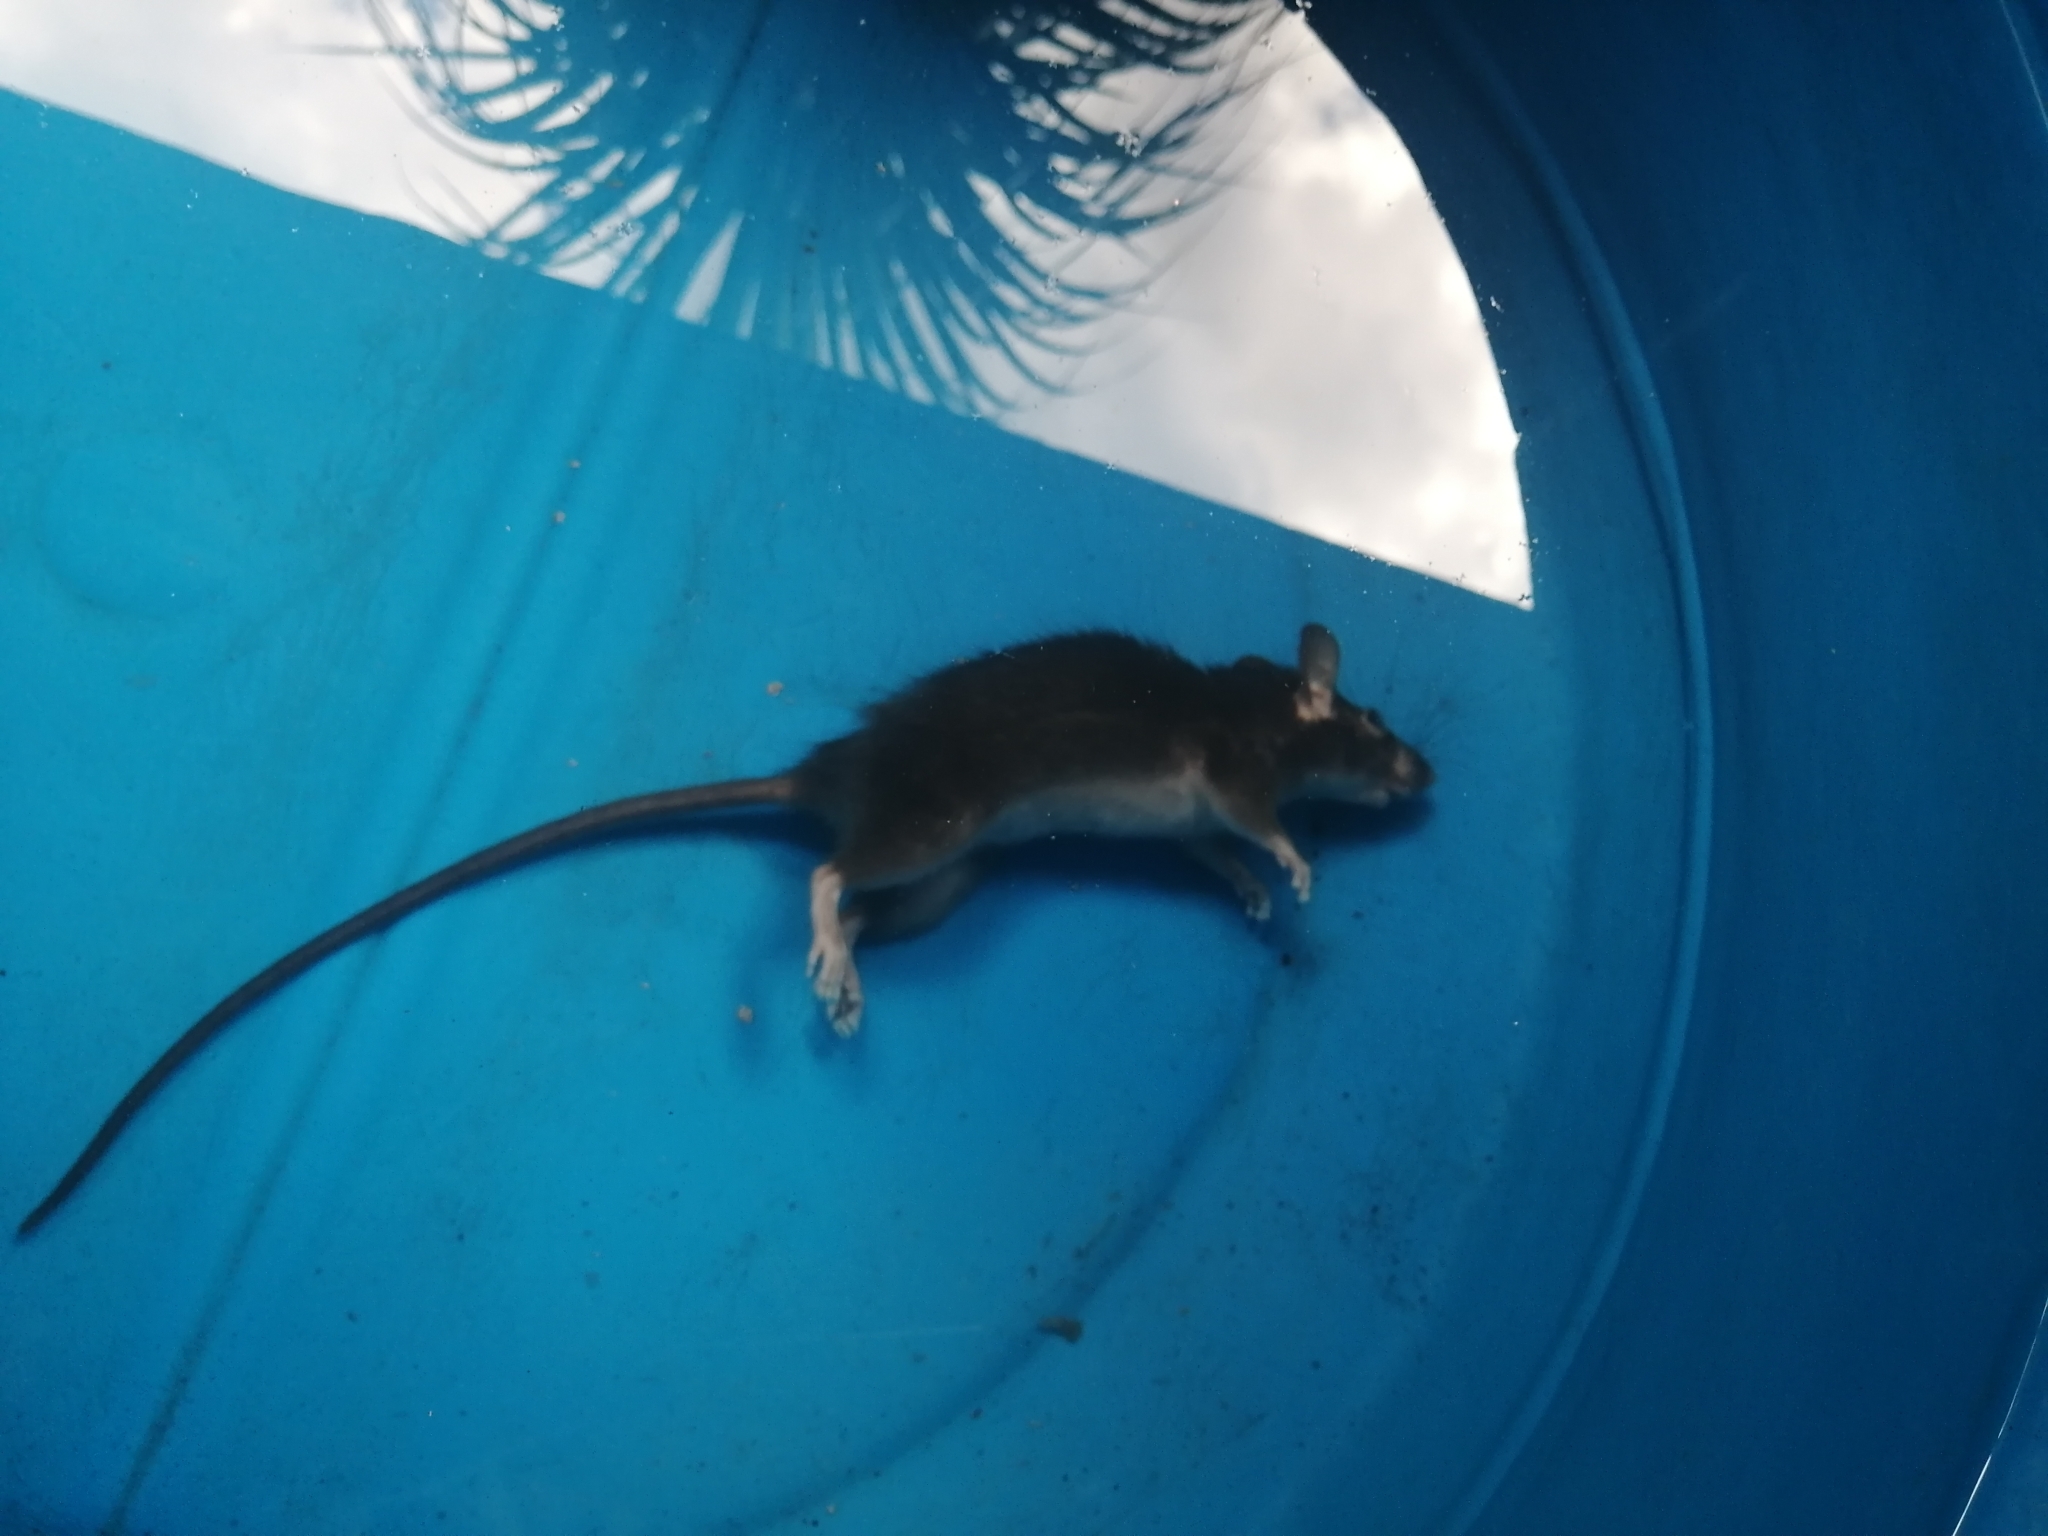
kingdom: Animalia
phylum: Chordata
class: Mammalia
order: Rodentia
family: Muridae
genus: Rattus
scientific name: Rattus rattus
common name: Black rat
